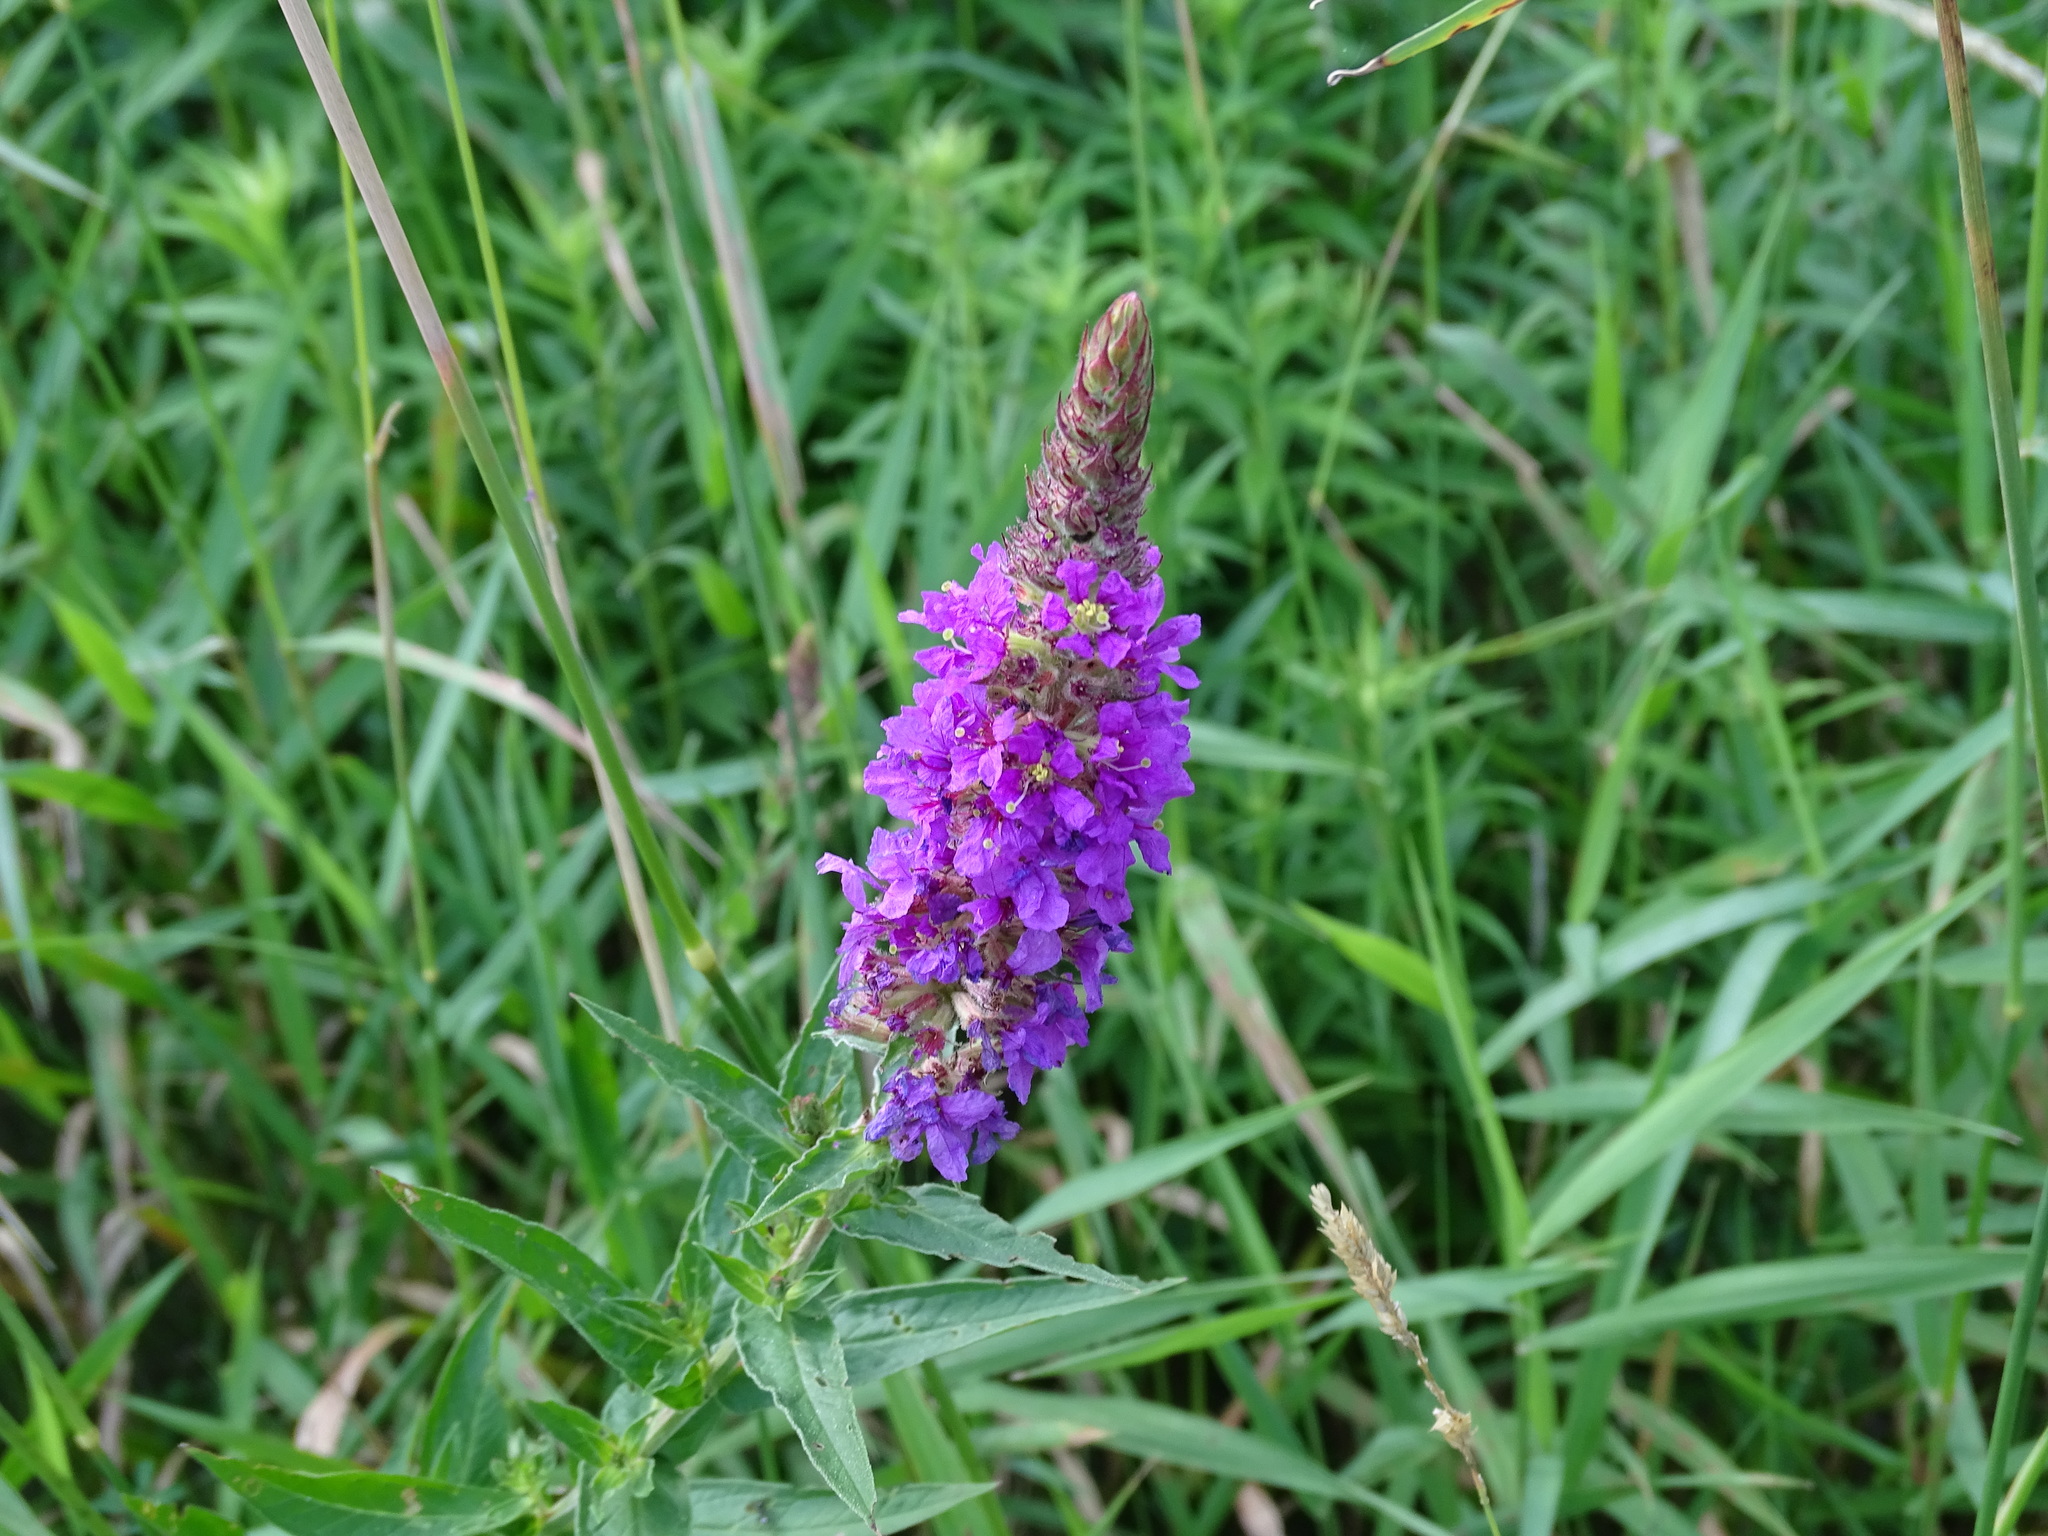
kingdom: Plantae
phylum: Tracheophyta
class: Magnoliopsida
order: Myrtales
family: Lythraceae
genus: Lythrum
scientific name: Lythrum salicaria
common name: Purple loosestrife
